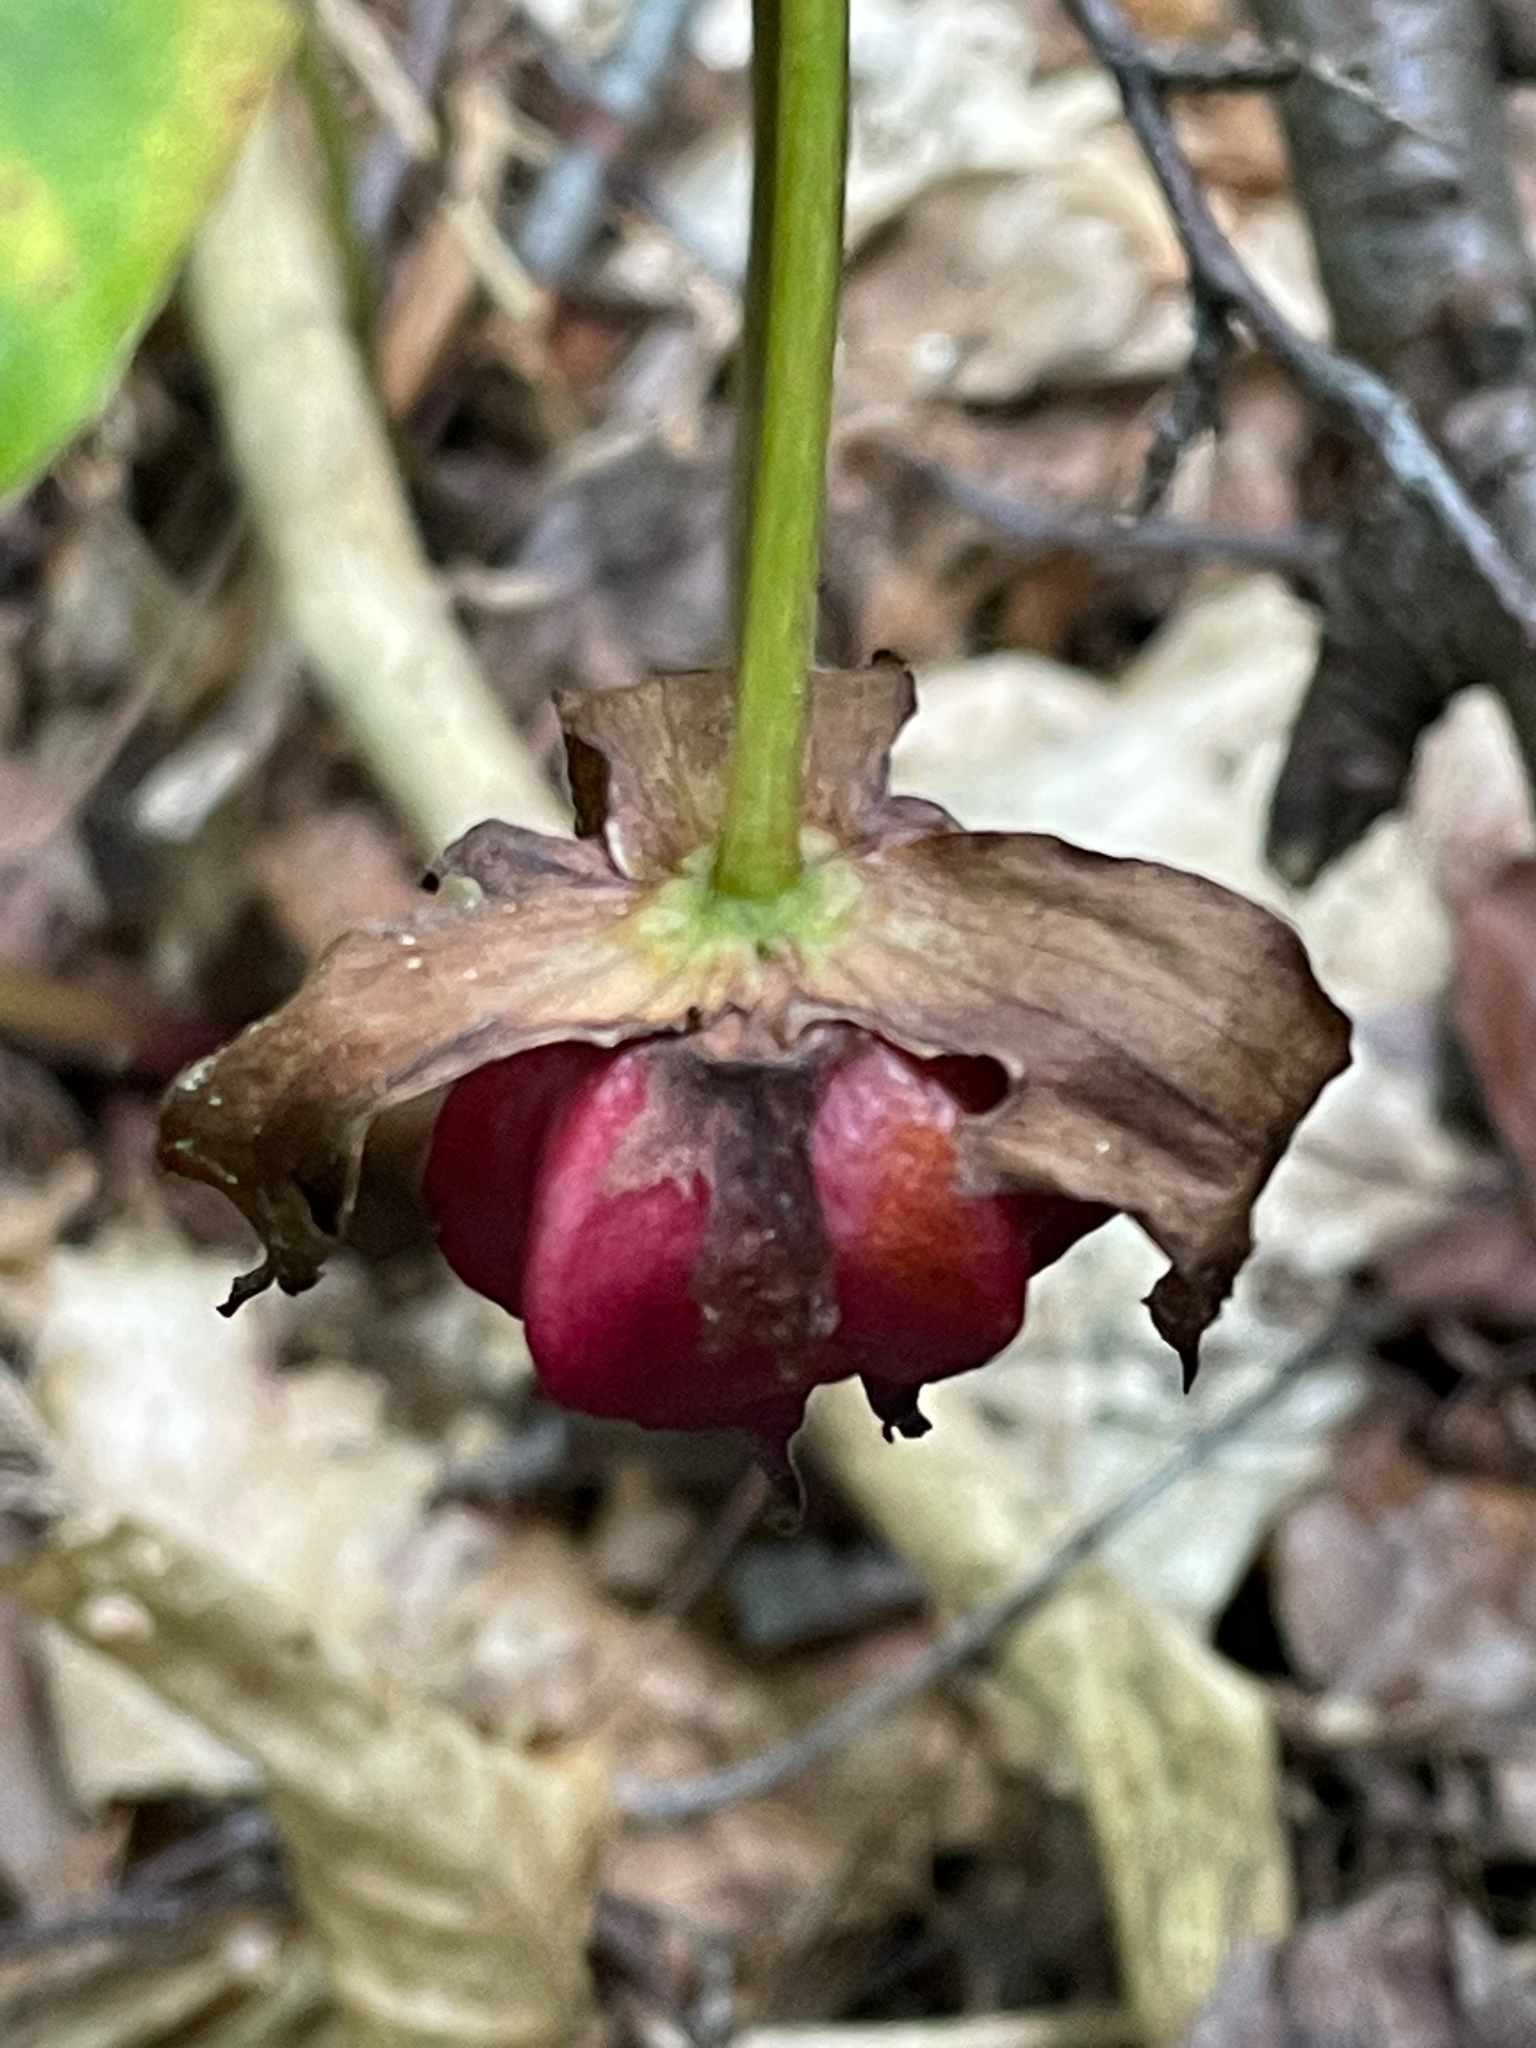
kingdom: Plantae
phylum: Tracheophyta
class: Liliopsida
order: Liliales
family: Melanthiaceae
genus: Trillium
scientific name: Trillium erectum
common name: Purple trillium
